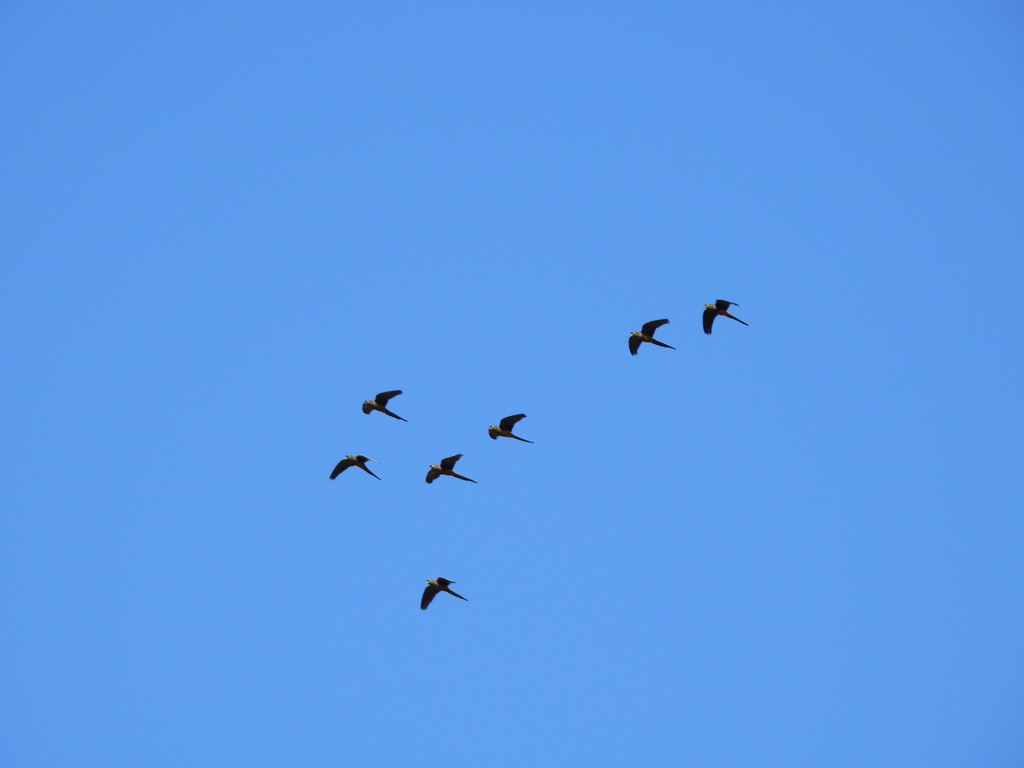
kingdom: Animalia
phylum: Chordata
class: Aves
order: Psittaciformes
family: Psittacidae
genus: Cyanoliseus
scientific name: Cyanoliseus patagonus
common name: Burrowing parrot
